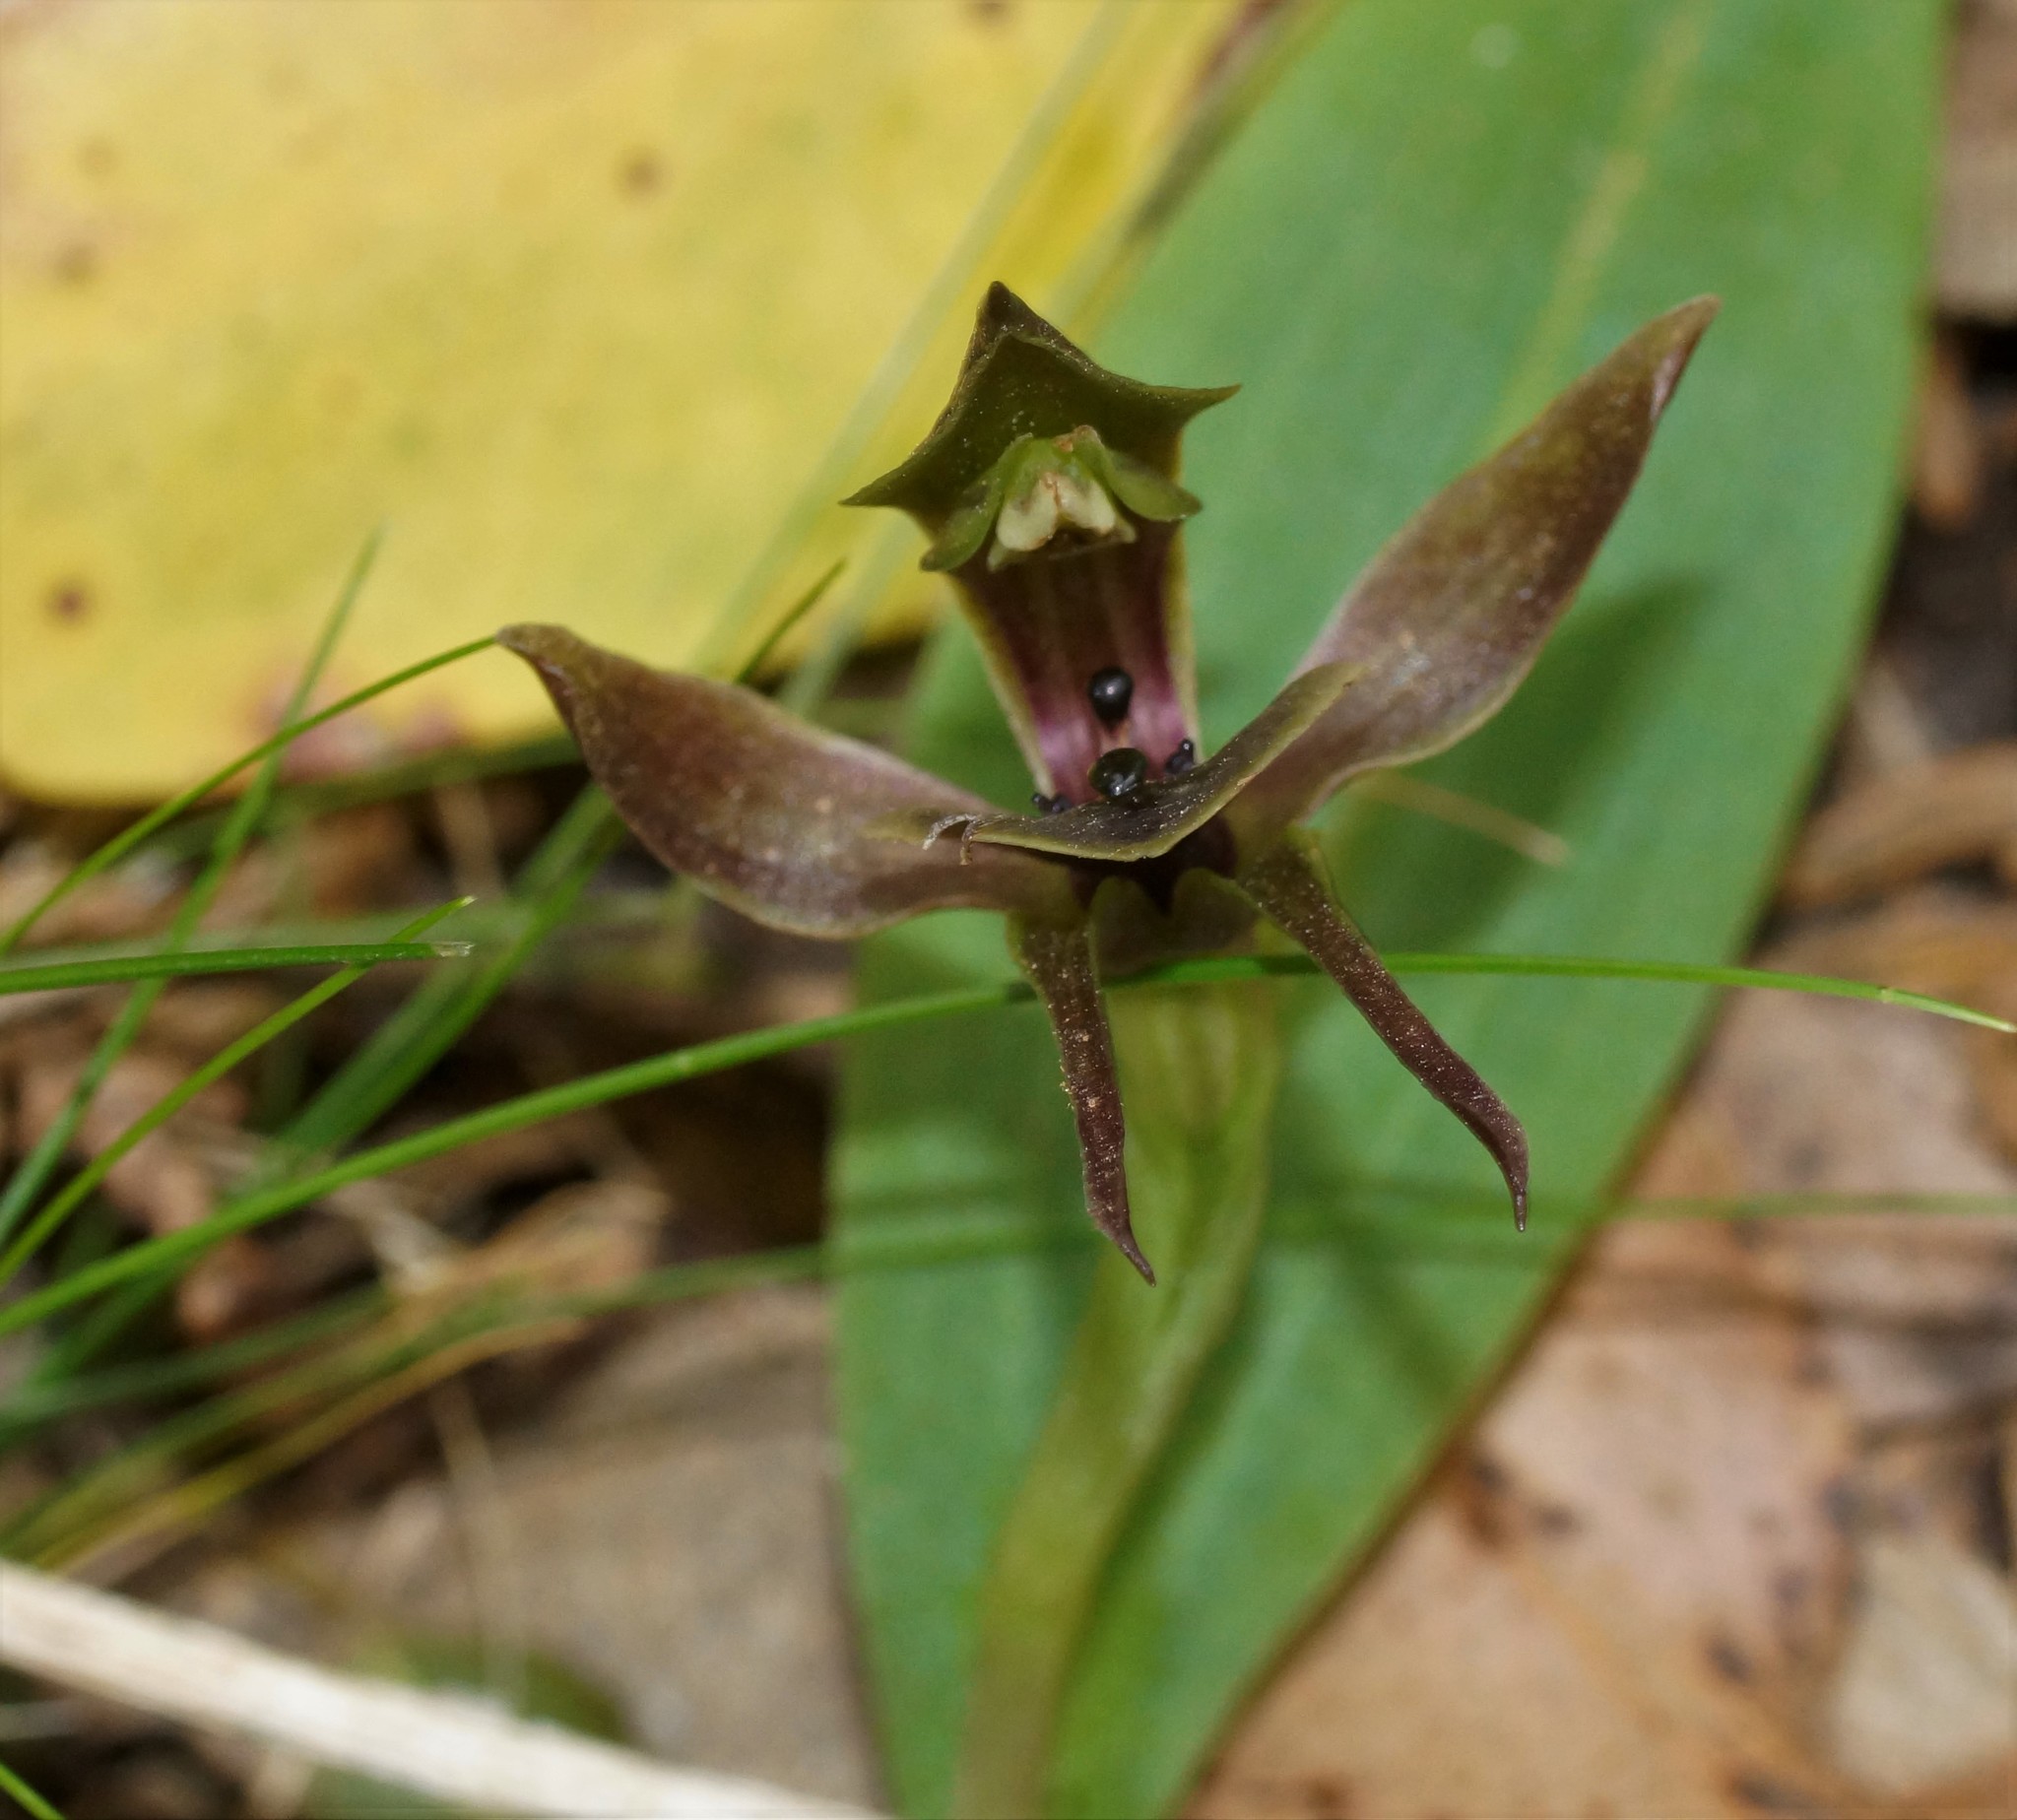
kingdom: Plantae
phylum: Tracheophyta
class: Liliopsida
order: Asparagales
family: Orchidaceae
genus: Chiloglottis
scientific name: Chiloglottis valida
